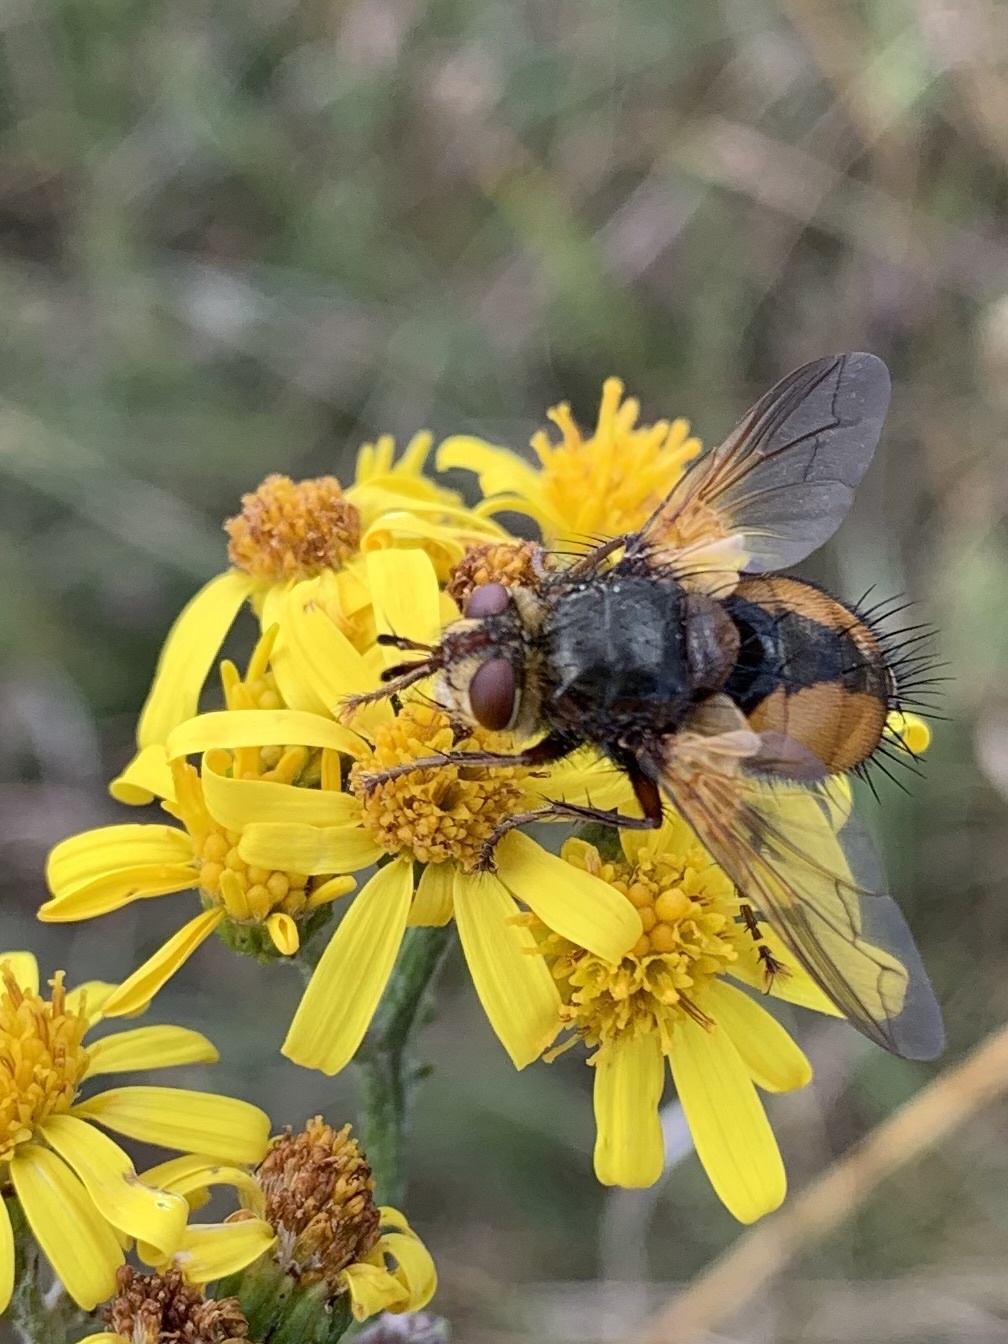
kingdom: Animalia
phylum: Arthropoda
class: Insecta
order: Diptera
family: Tachinidae
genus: Tachina
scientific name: Tachina fera
